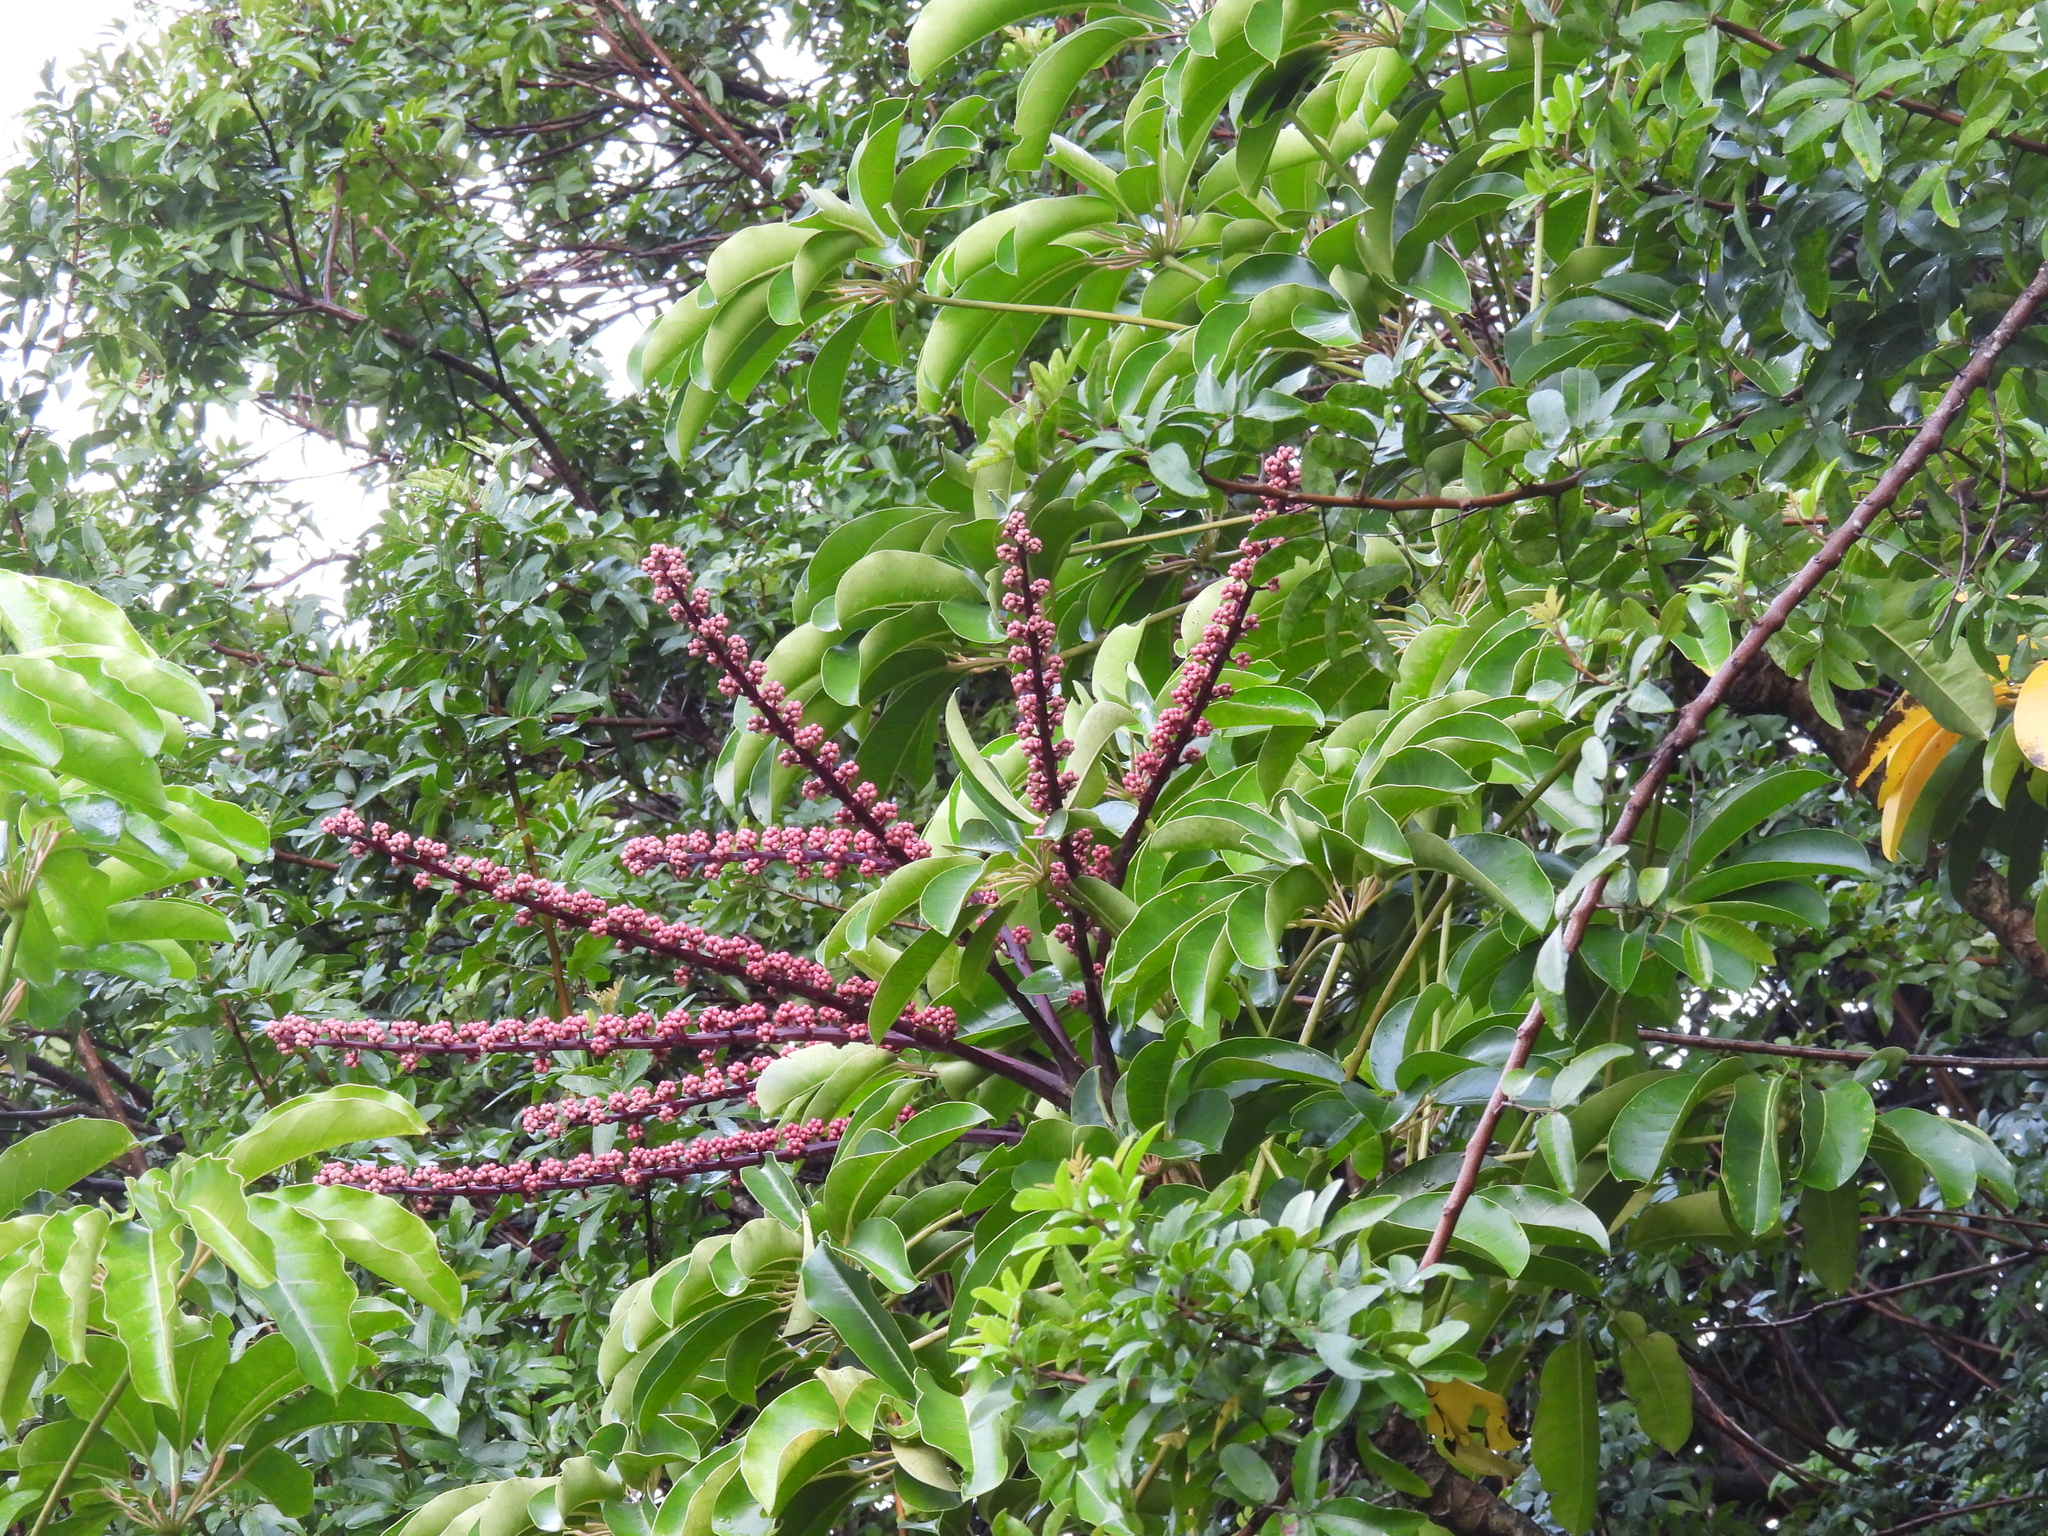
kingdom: Plantae
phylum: Tracheophyta
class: Magnoliopsida
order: Apiales
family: Araliaceae
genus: Heptapleurum
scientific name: Heptapleurum actinophyllum
